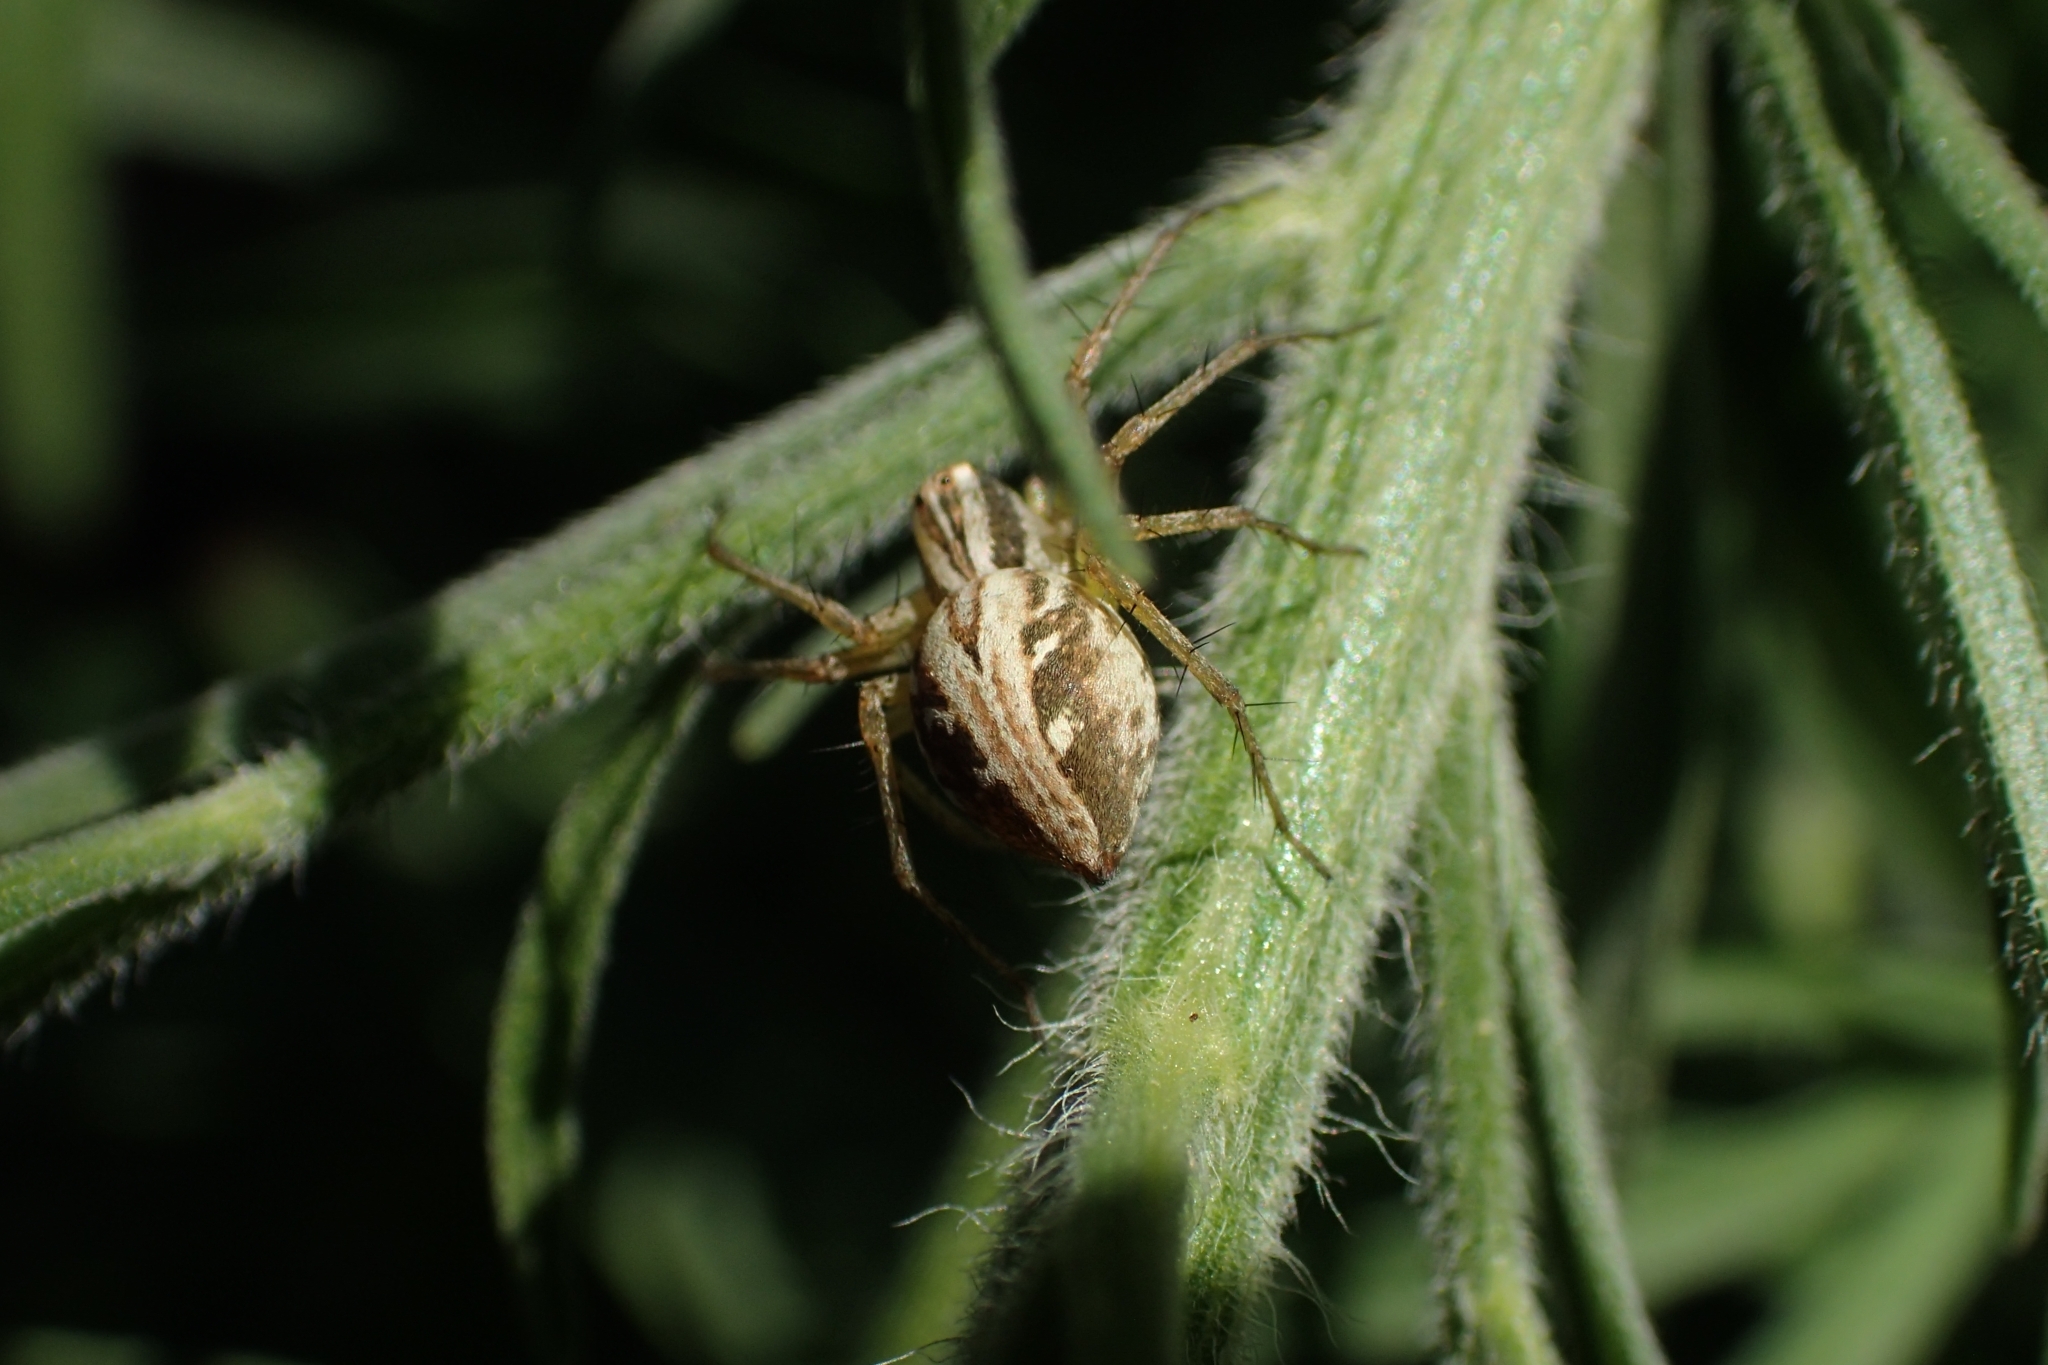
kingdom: Animalia
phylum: Arthropoda
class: Arachnida
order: Araneae
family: Oxyopidae
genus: Oxyopes
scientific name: Oxyopes gracilipes
